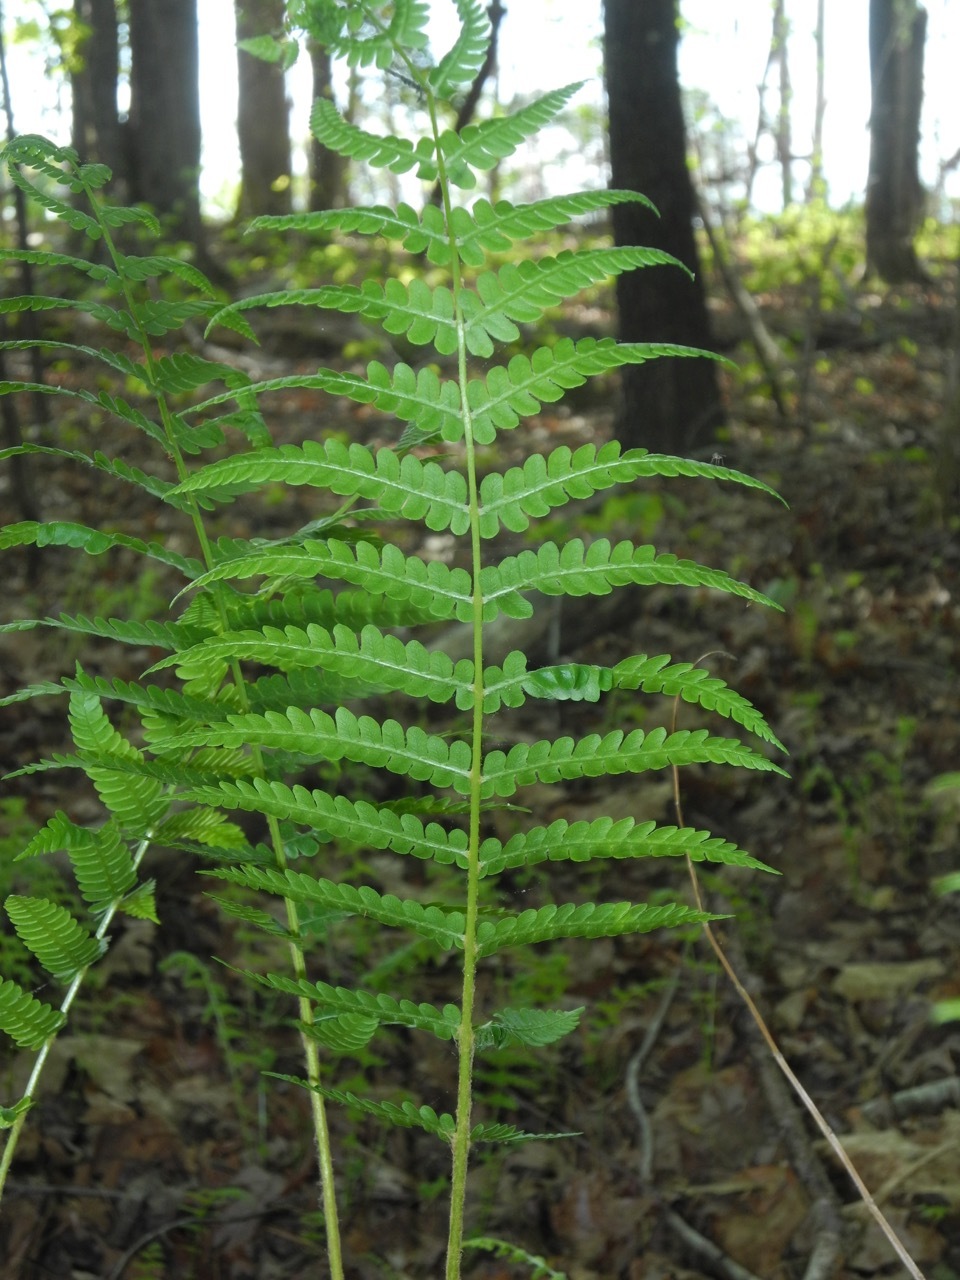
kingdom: Plantae
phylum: Tracheophyta
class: Polypodiopsida
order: Osmundales
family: Osmundaceae
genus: Osmundastrum
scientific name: Osmundastrum cinnamomeum
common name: Cinnamon fern
